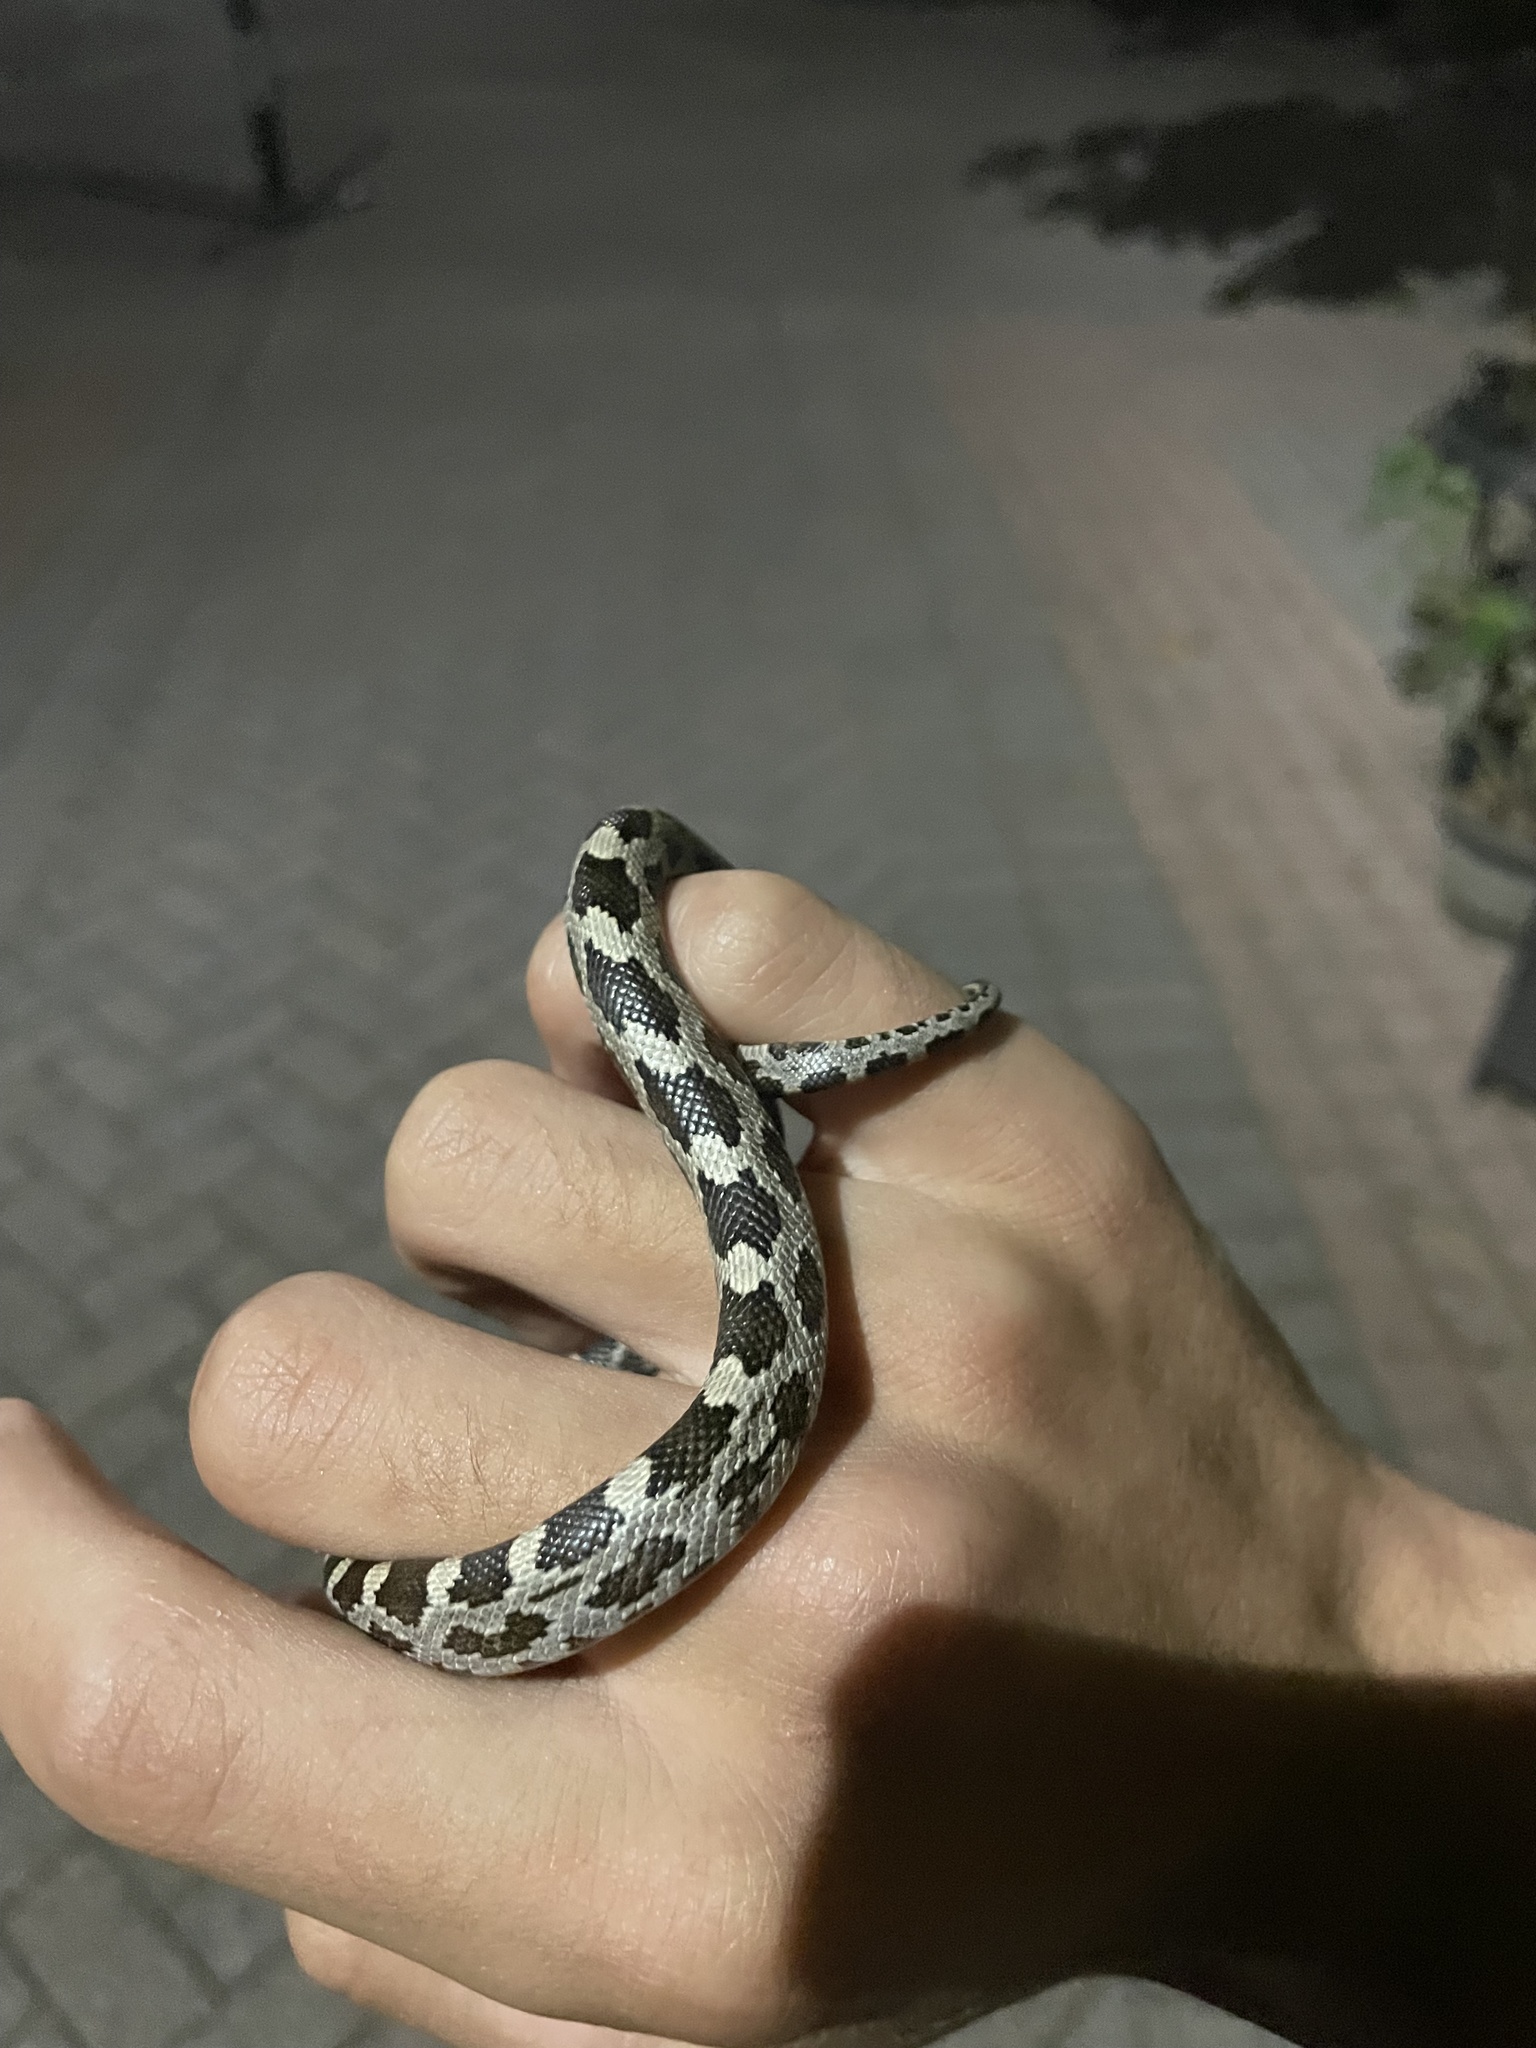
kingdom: Animalia
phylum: Chordata
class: Squamata
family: Colubridae
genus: Pantherophis
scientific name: Pantherophis alleghaniensis
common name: Eastern rat snake
